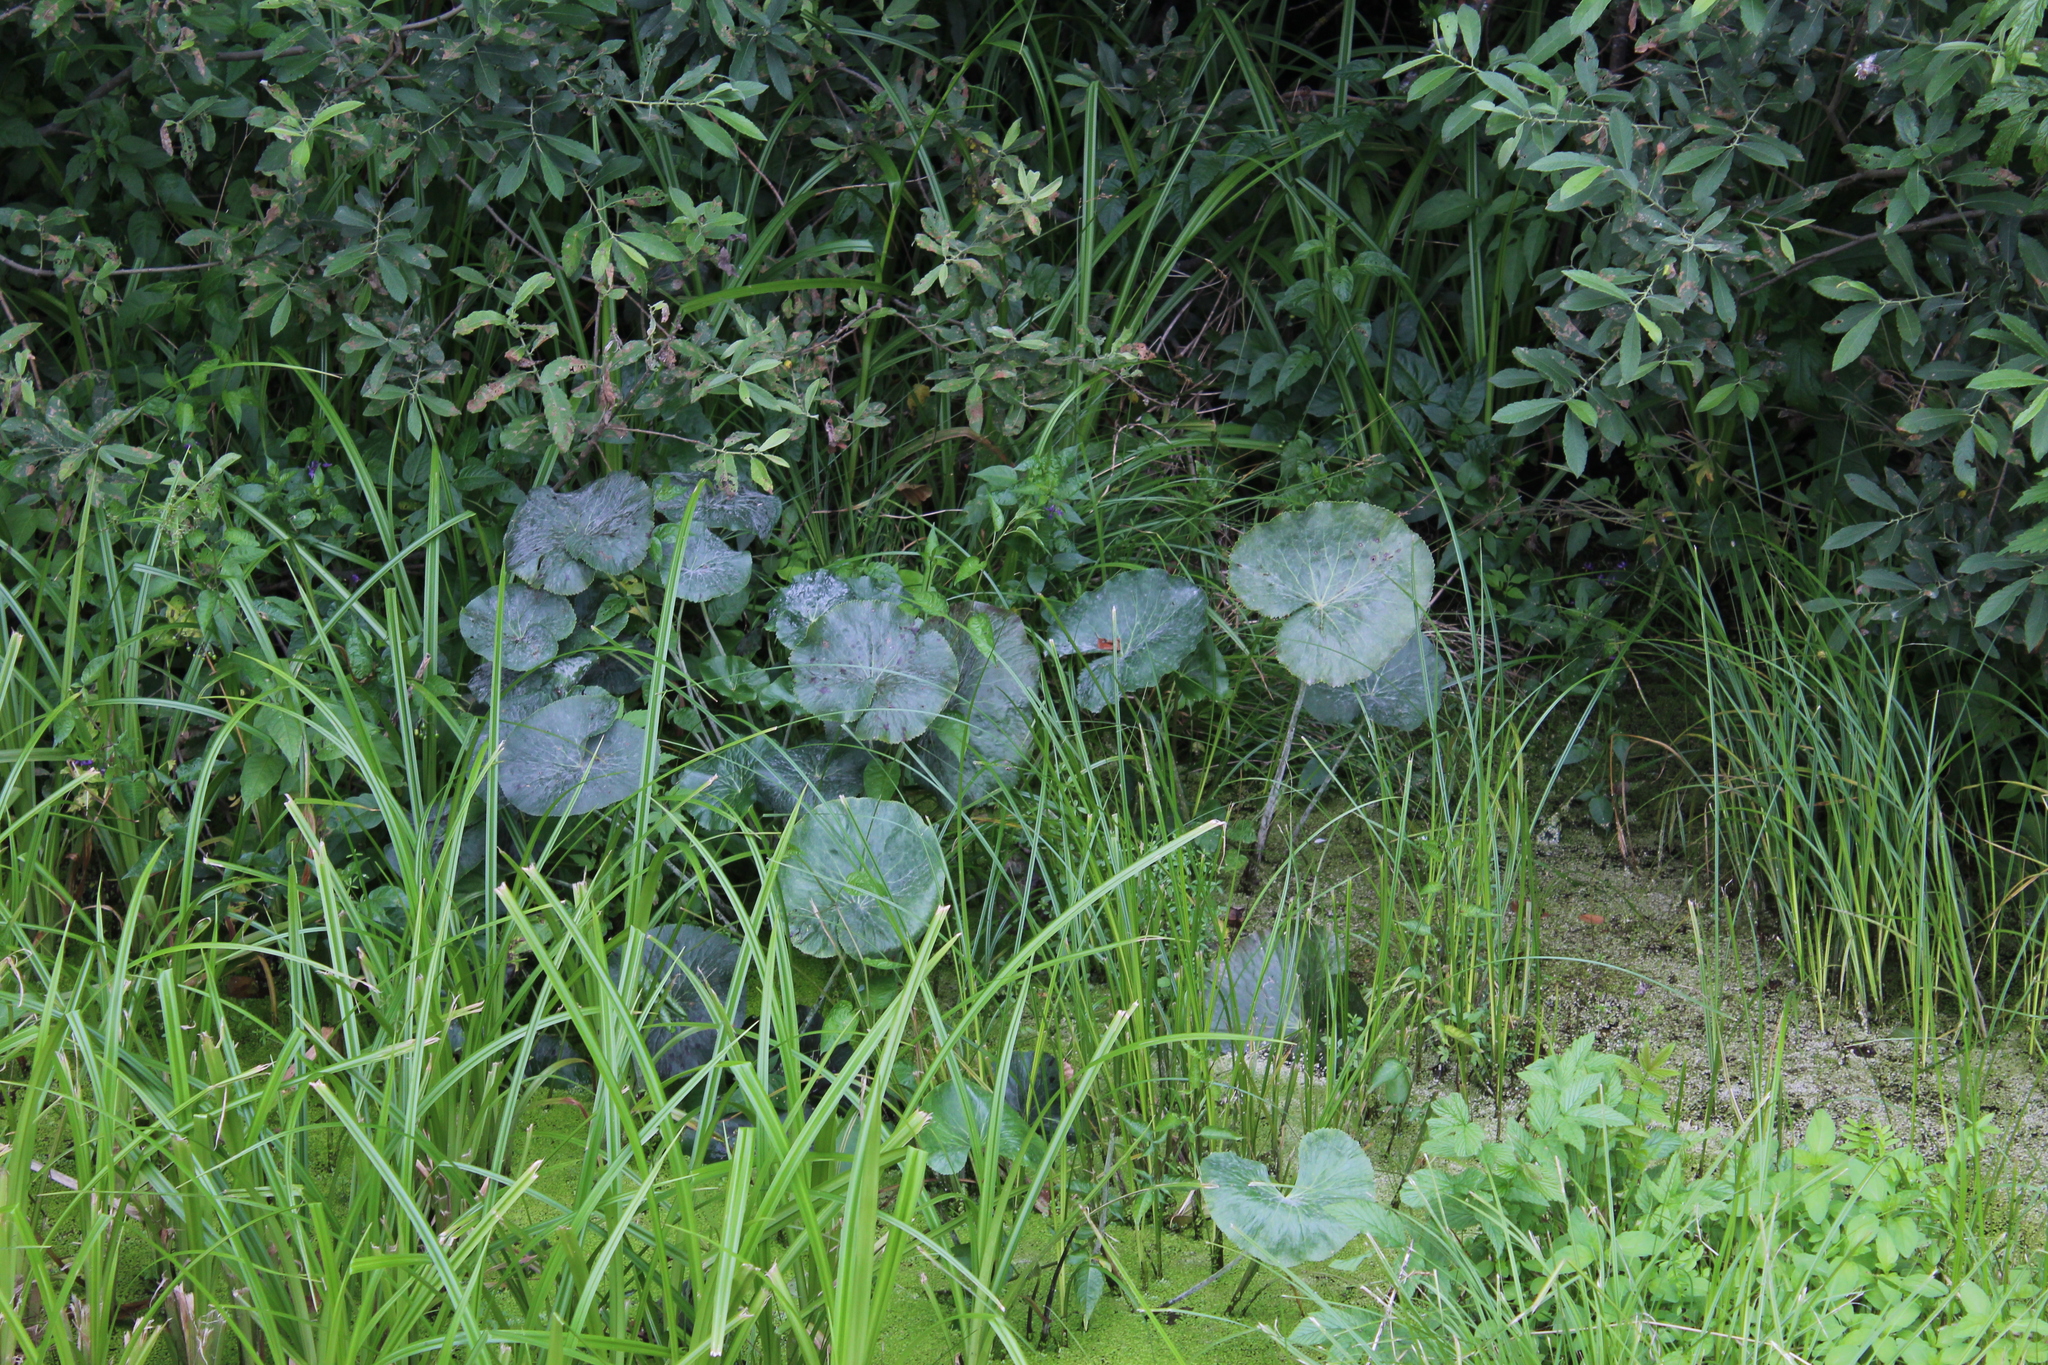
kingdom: Plantae
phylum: Tracheophyta
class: Magnoliopsida
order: Ranunculales
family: Ranunculaceae
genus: Caltha
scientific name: Caltha palustris
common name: Marsh marigold
